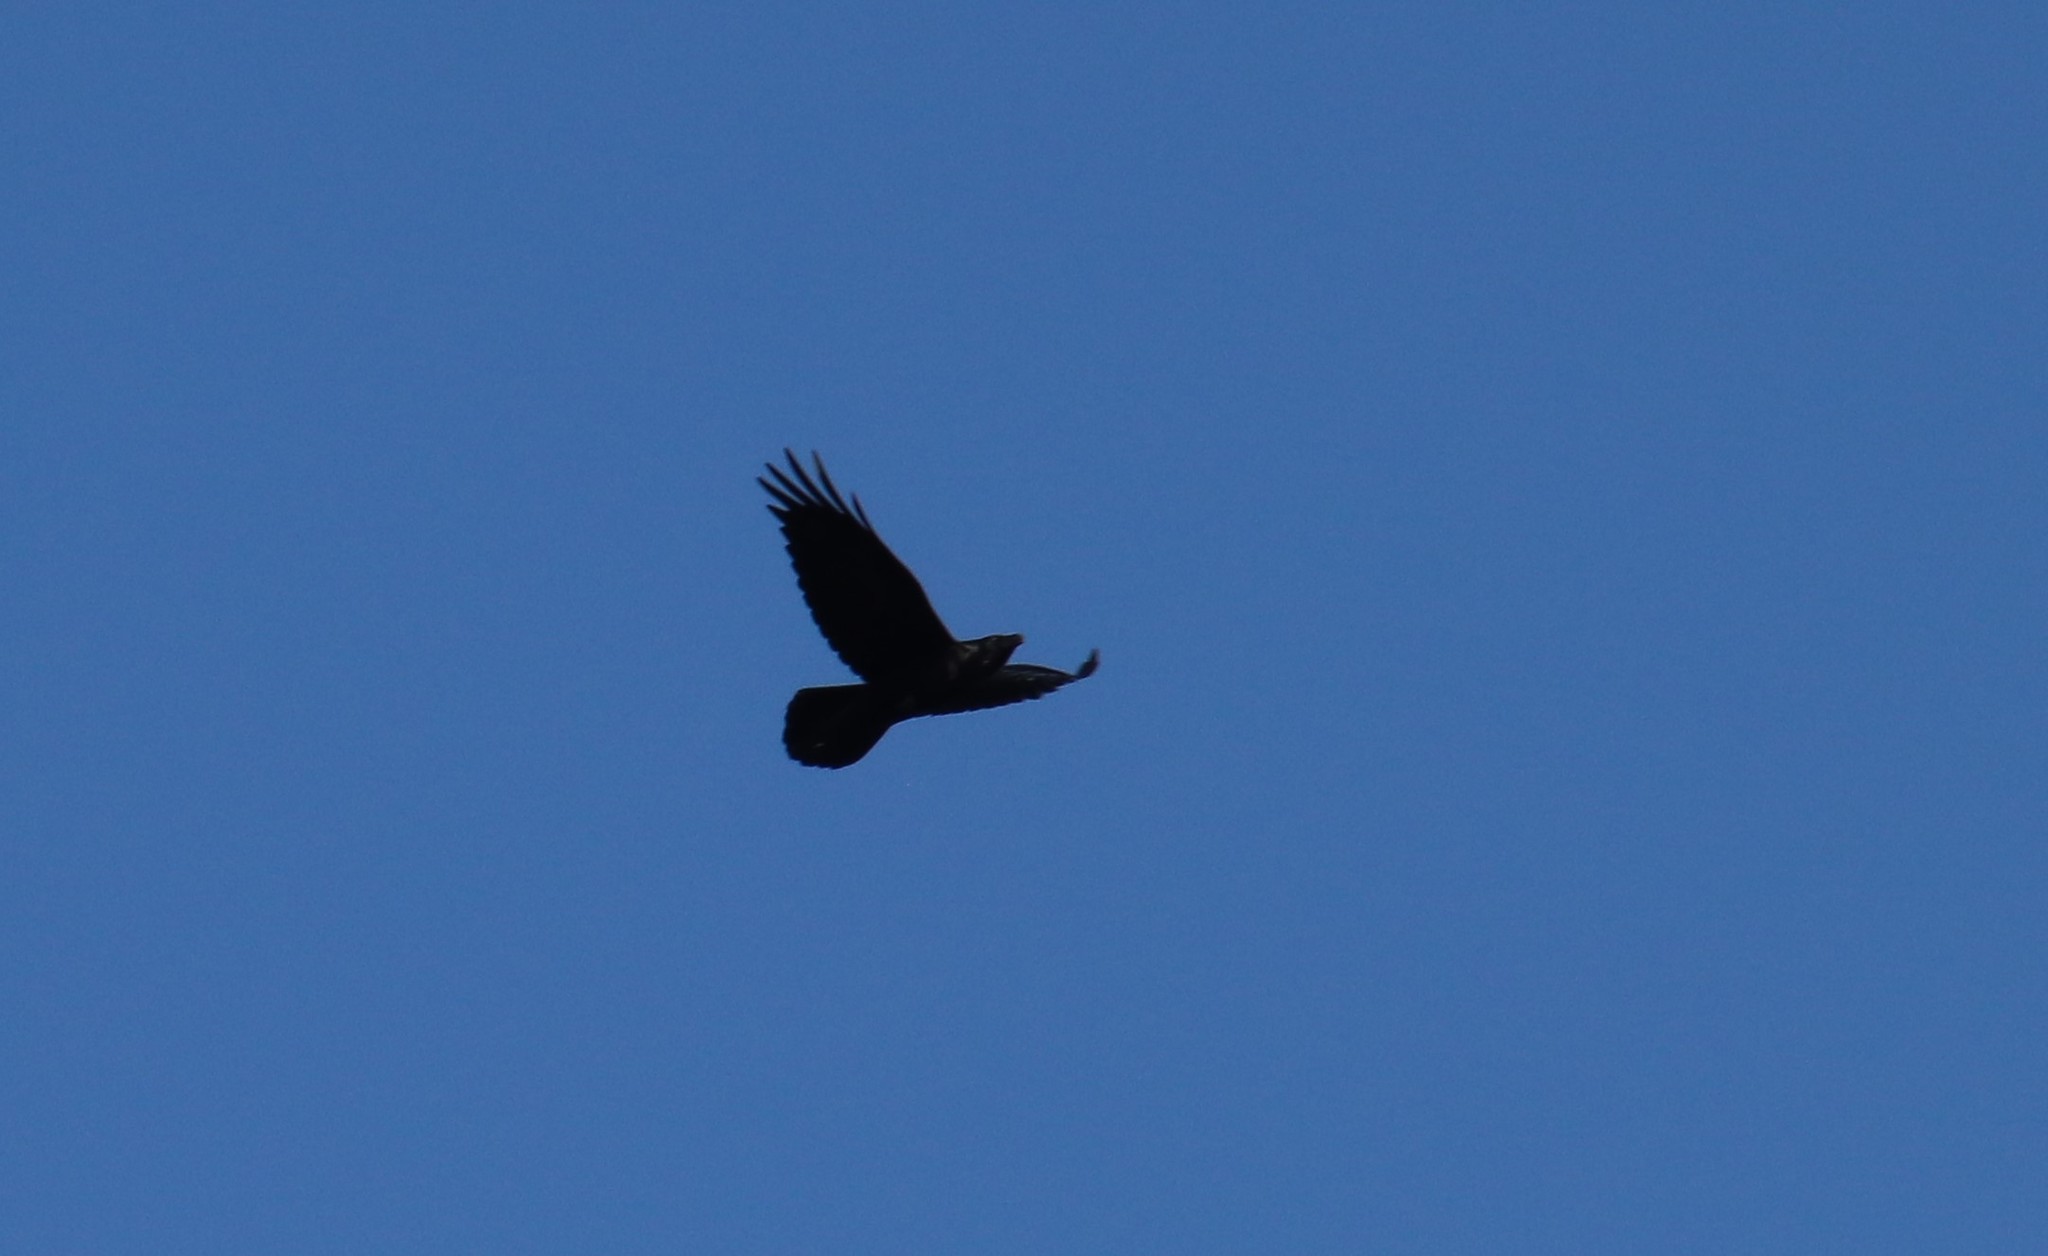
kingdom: Animalia
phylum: Chordata
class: Aves
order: Passeriformes
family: Corvidae
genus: Corvus
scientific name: Corvus corax
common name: Common raven
